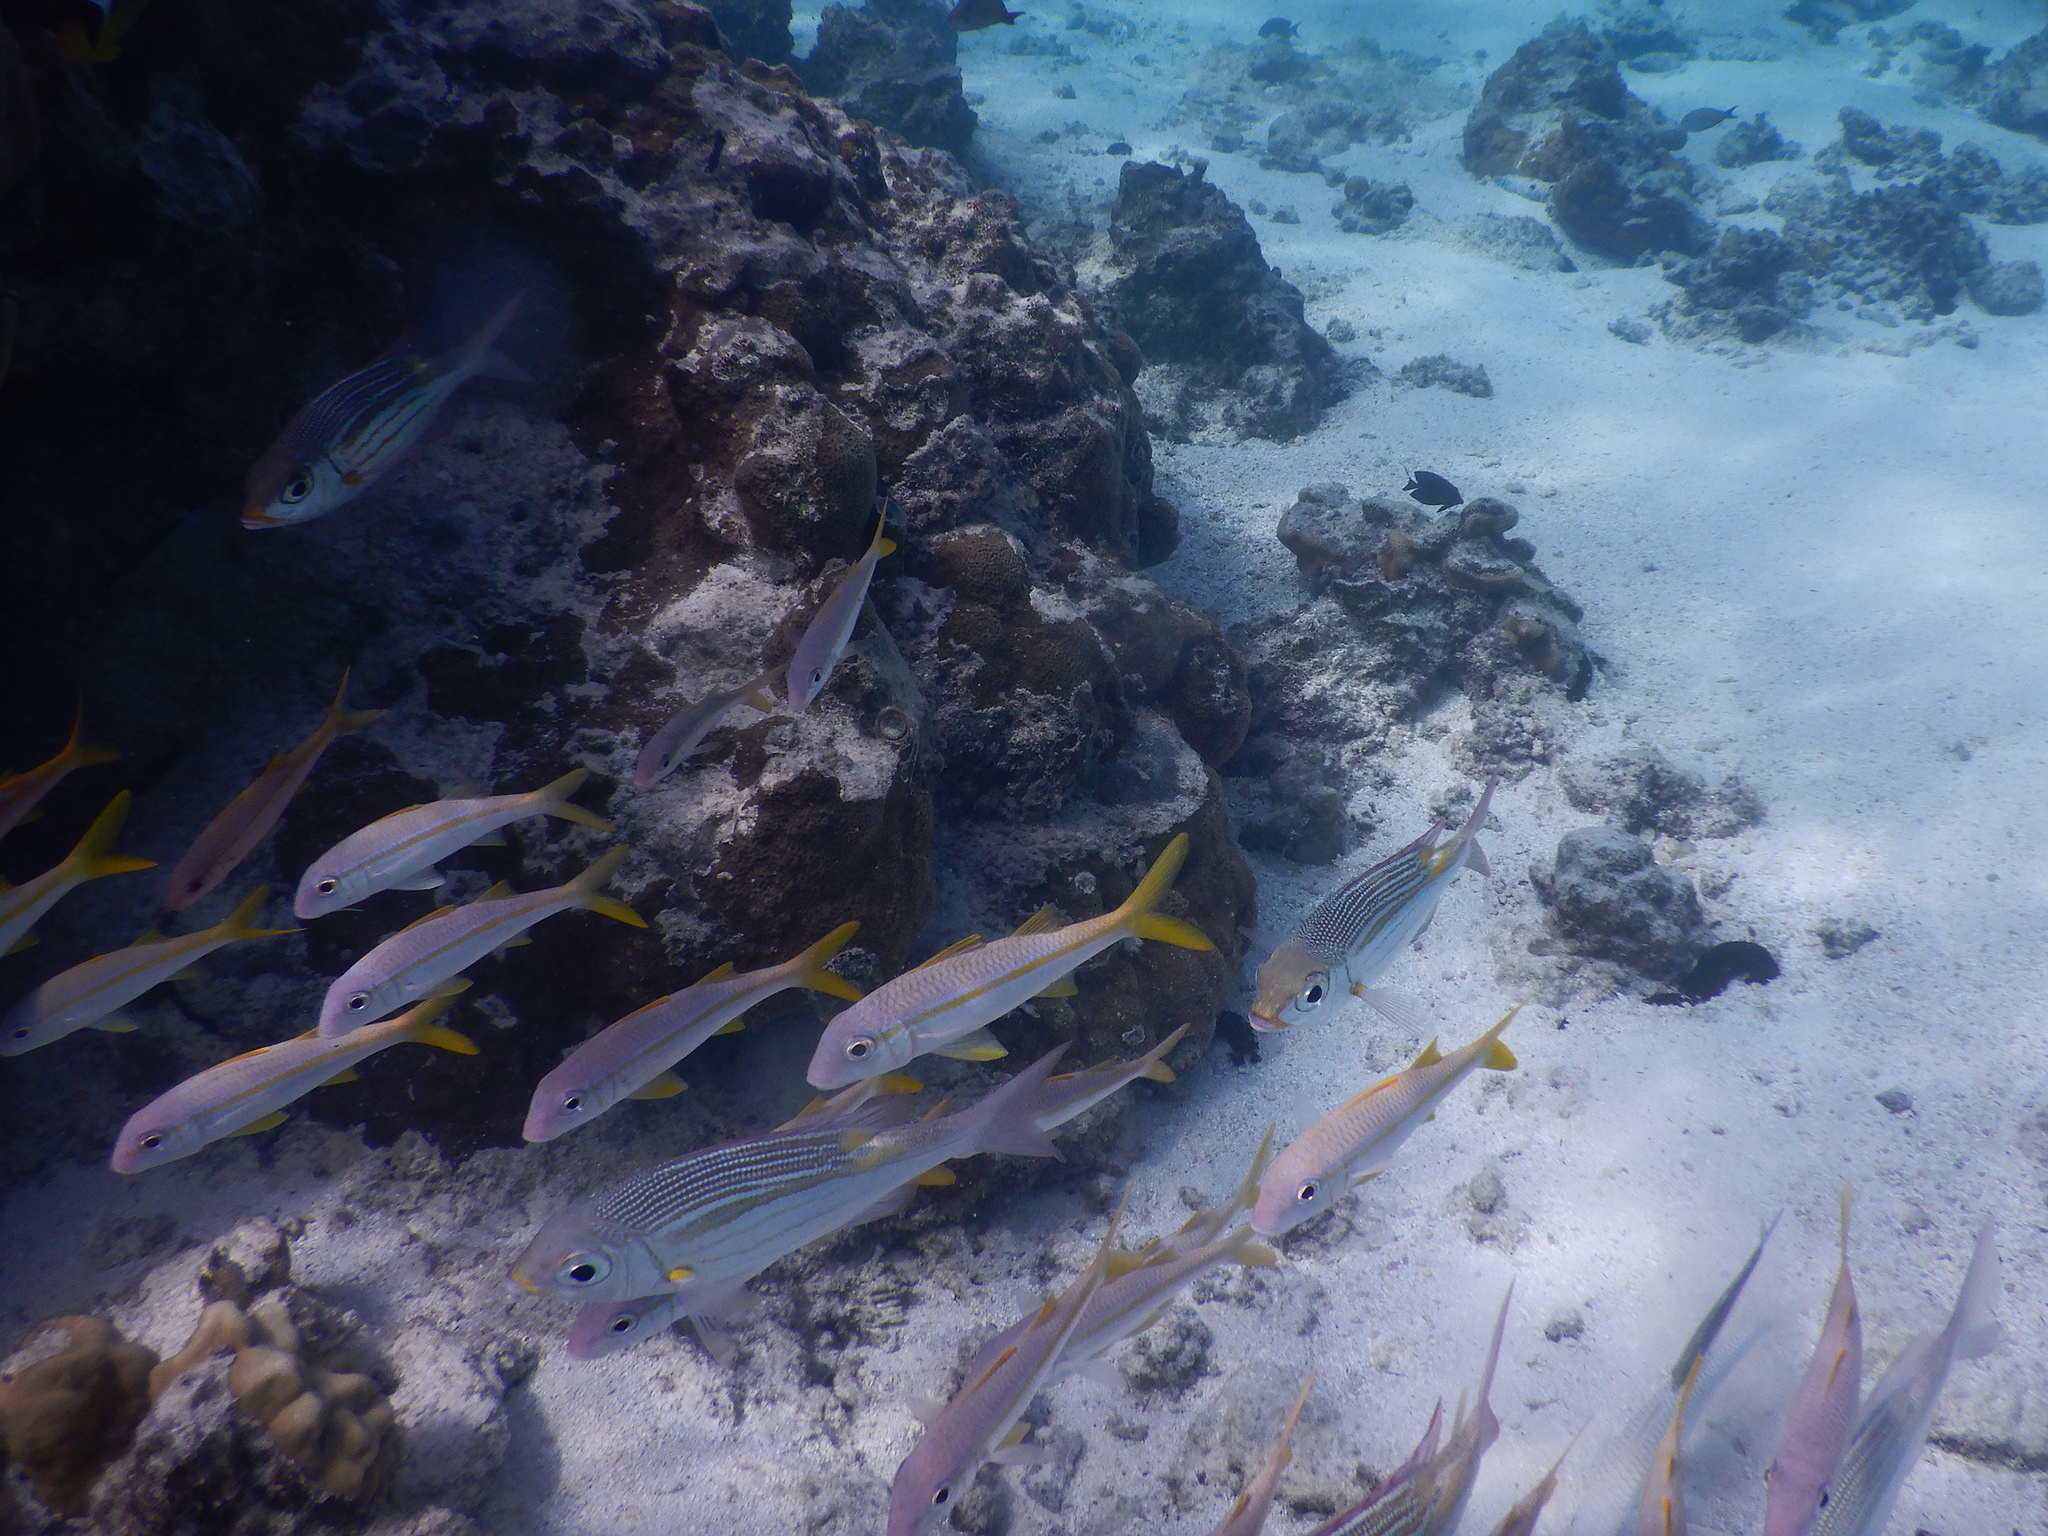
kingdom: Animalia
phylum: Chordata
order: Perciformes
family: Mullidae
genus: Mulloidichthys
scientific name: Mulloidichthys vanicolensis
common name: Yellowfin goatfish
